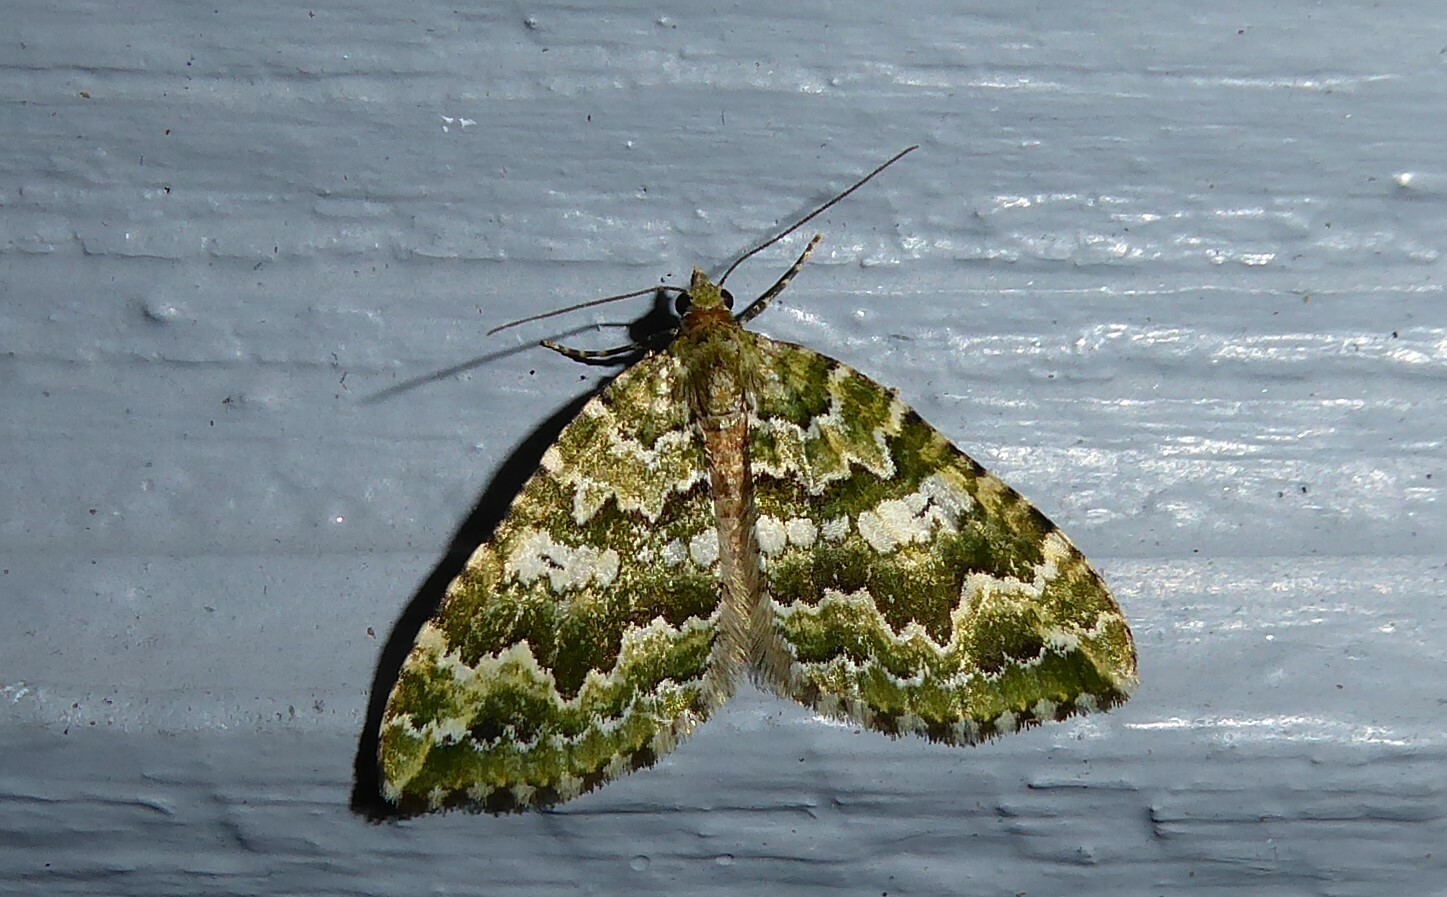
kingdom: Animalia
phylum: Arthropoda
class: Insecta
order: Lepidoptera
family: Geometridae
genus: Asaphodes
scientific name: Asaphodes beata
